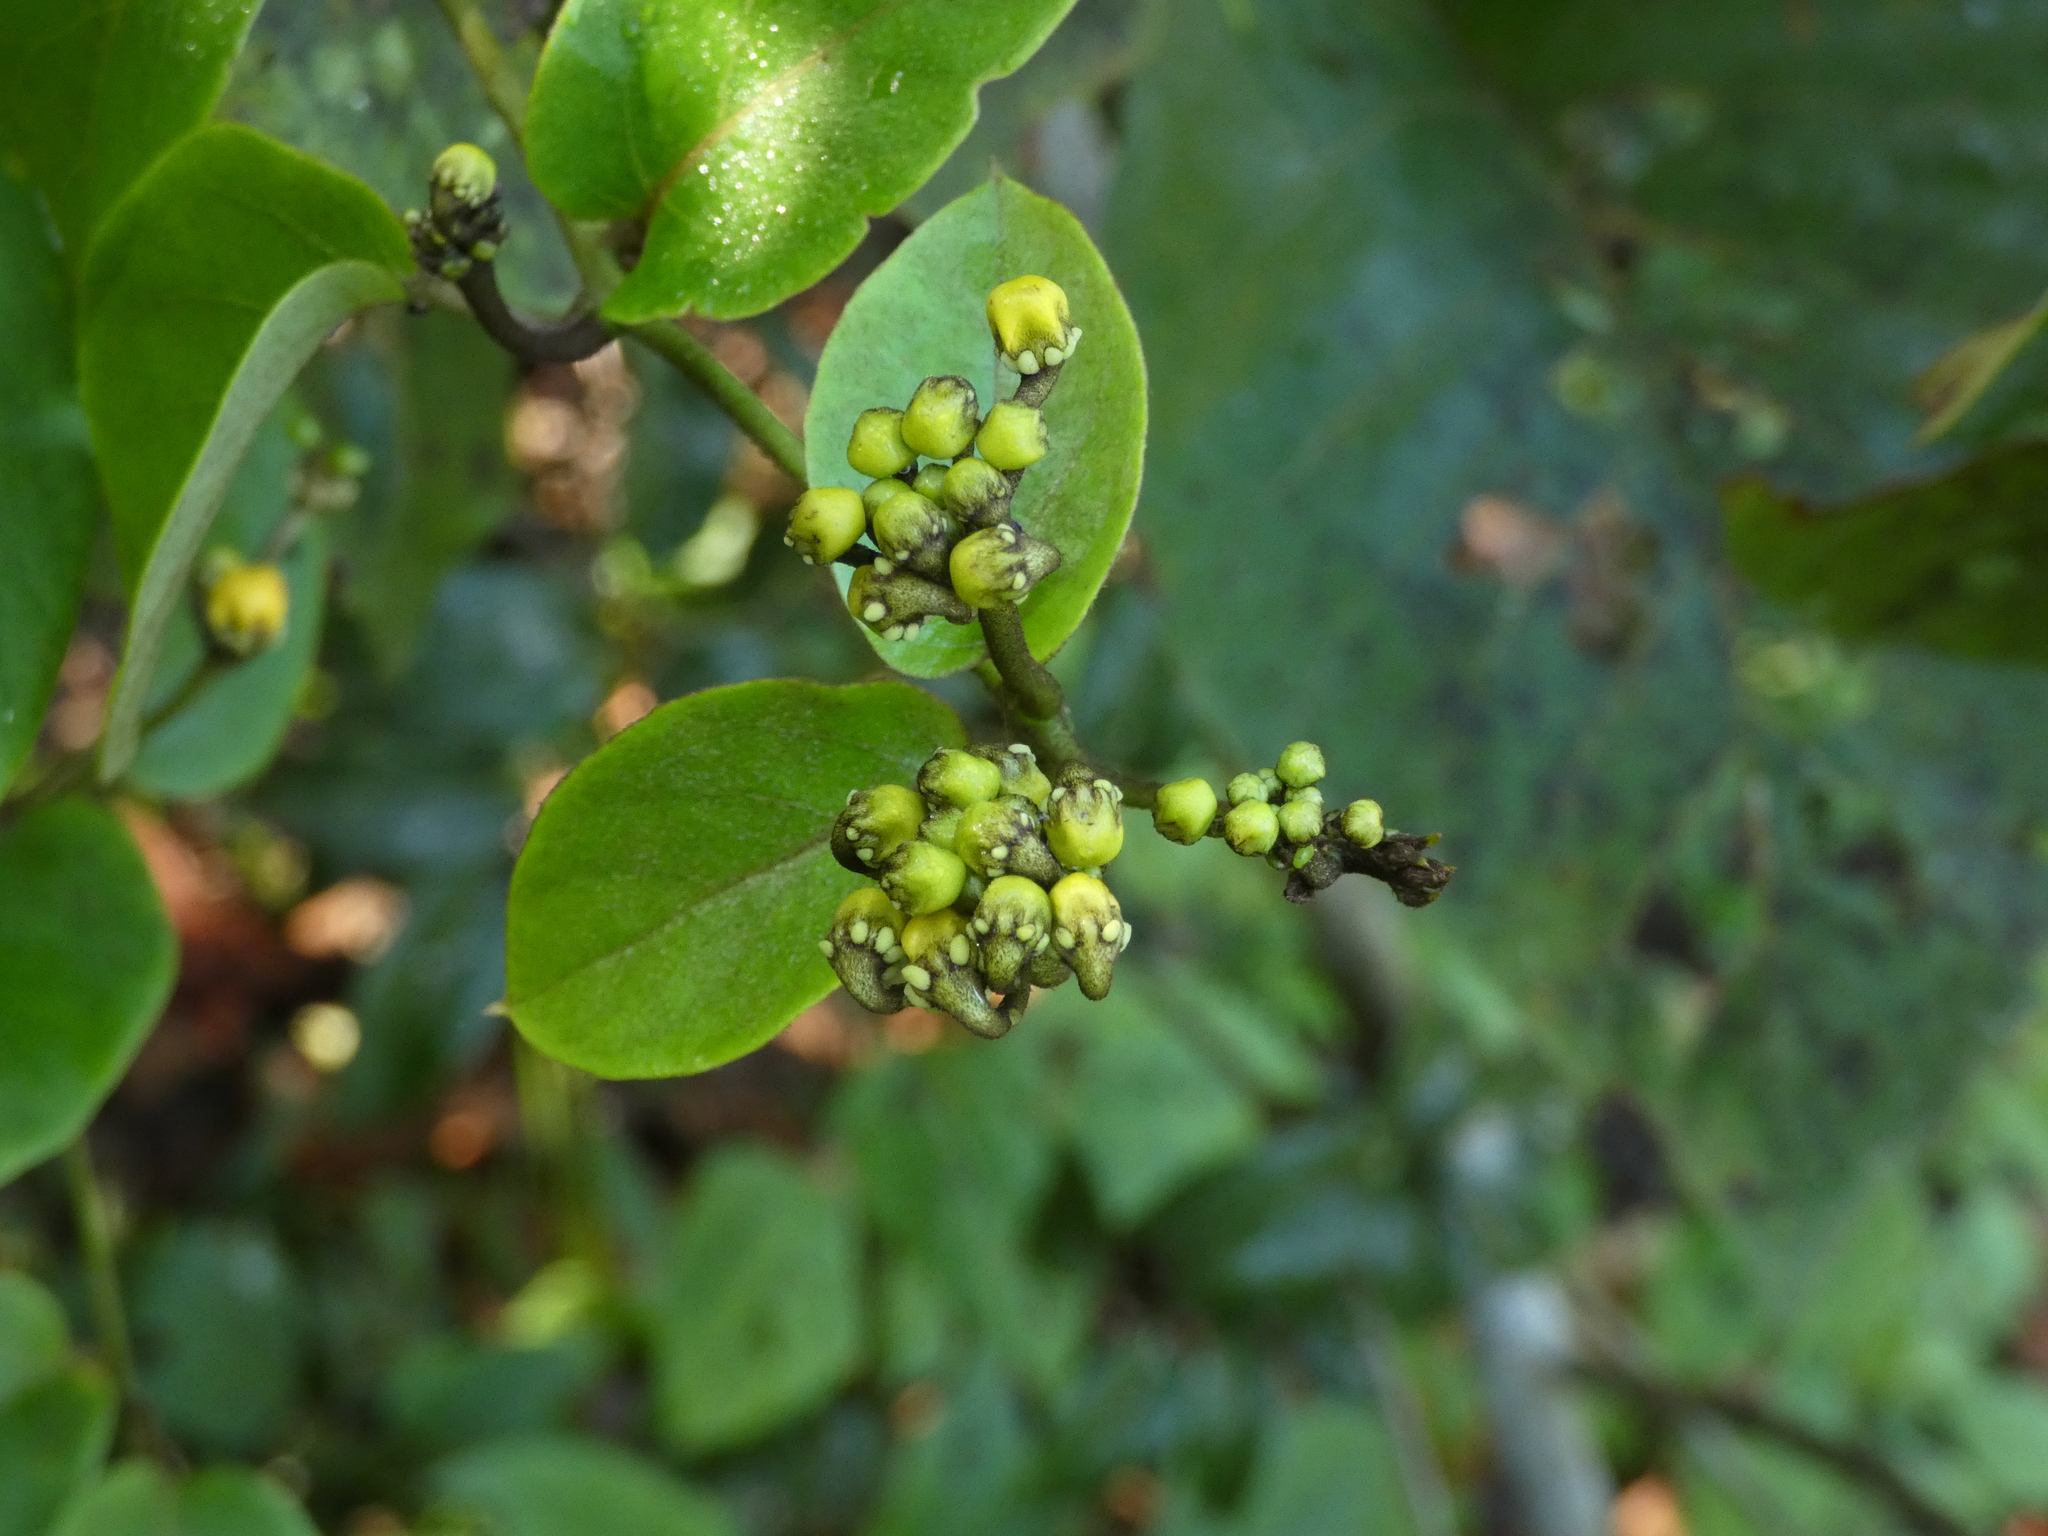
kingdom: Plantae
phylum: Tracheophyta
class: Magnoliopsida
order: Malpighiales
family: Malpighiaceae
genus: Stigmaphyllon
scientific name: Stigmaphyllon blanchetii
